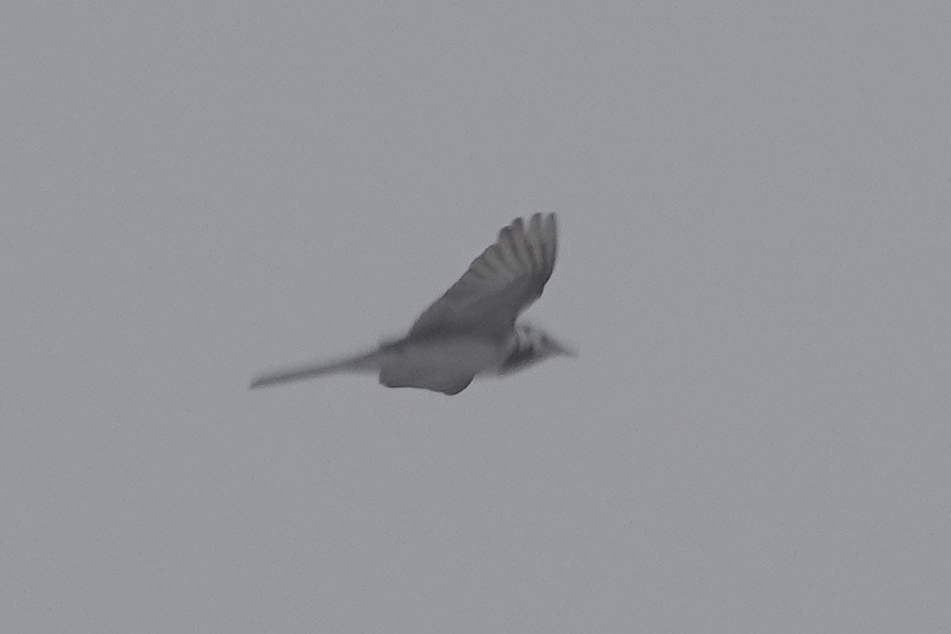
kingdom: Animalia
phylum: Chordata
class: Aves
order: Passeriformes
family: Motacillidae
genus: Motacilla
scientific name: Motacilla alba
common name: White wagtail
